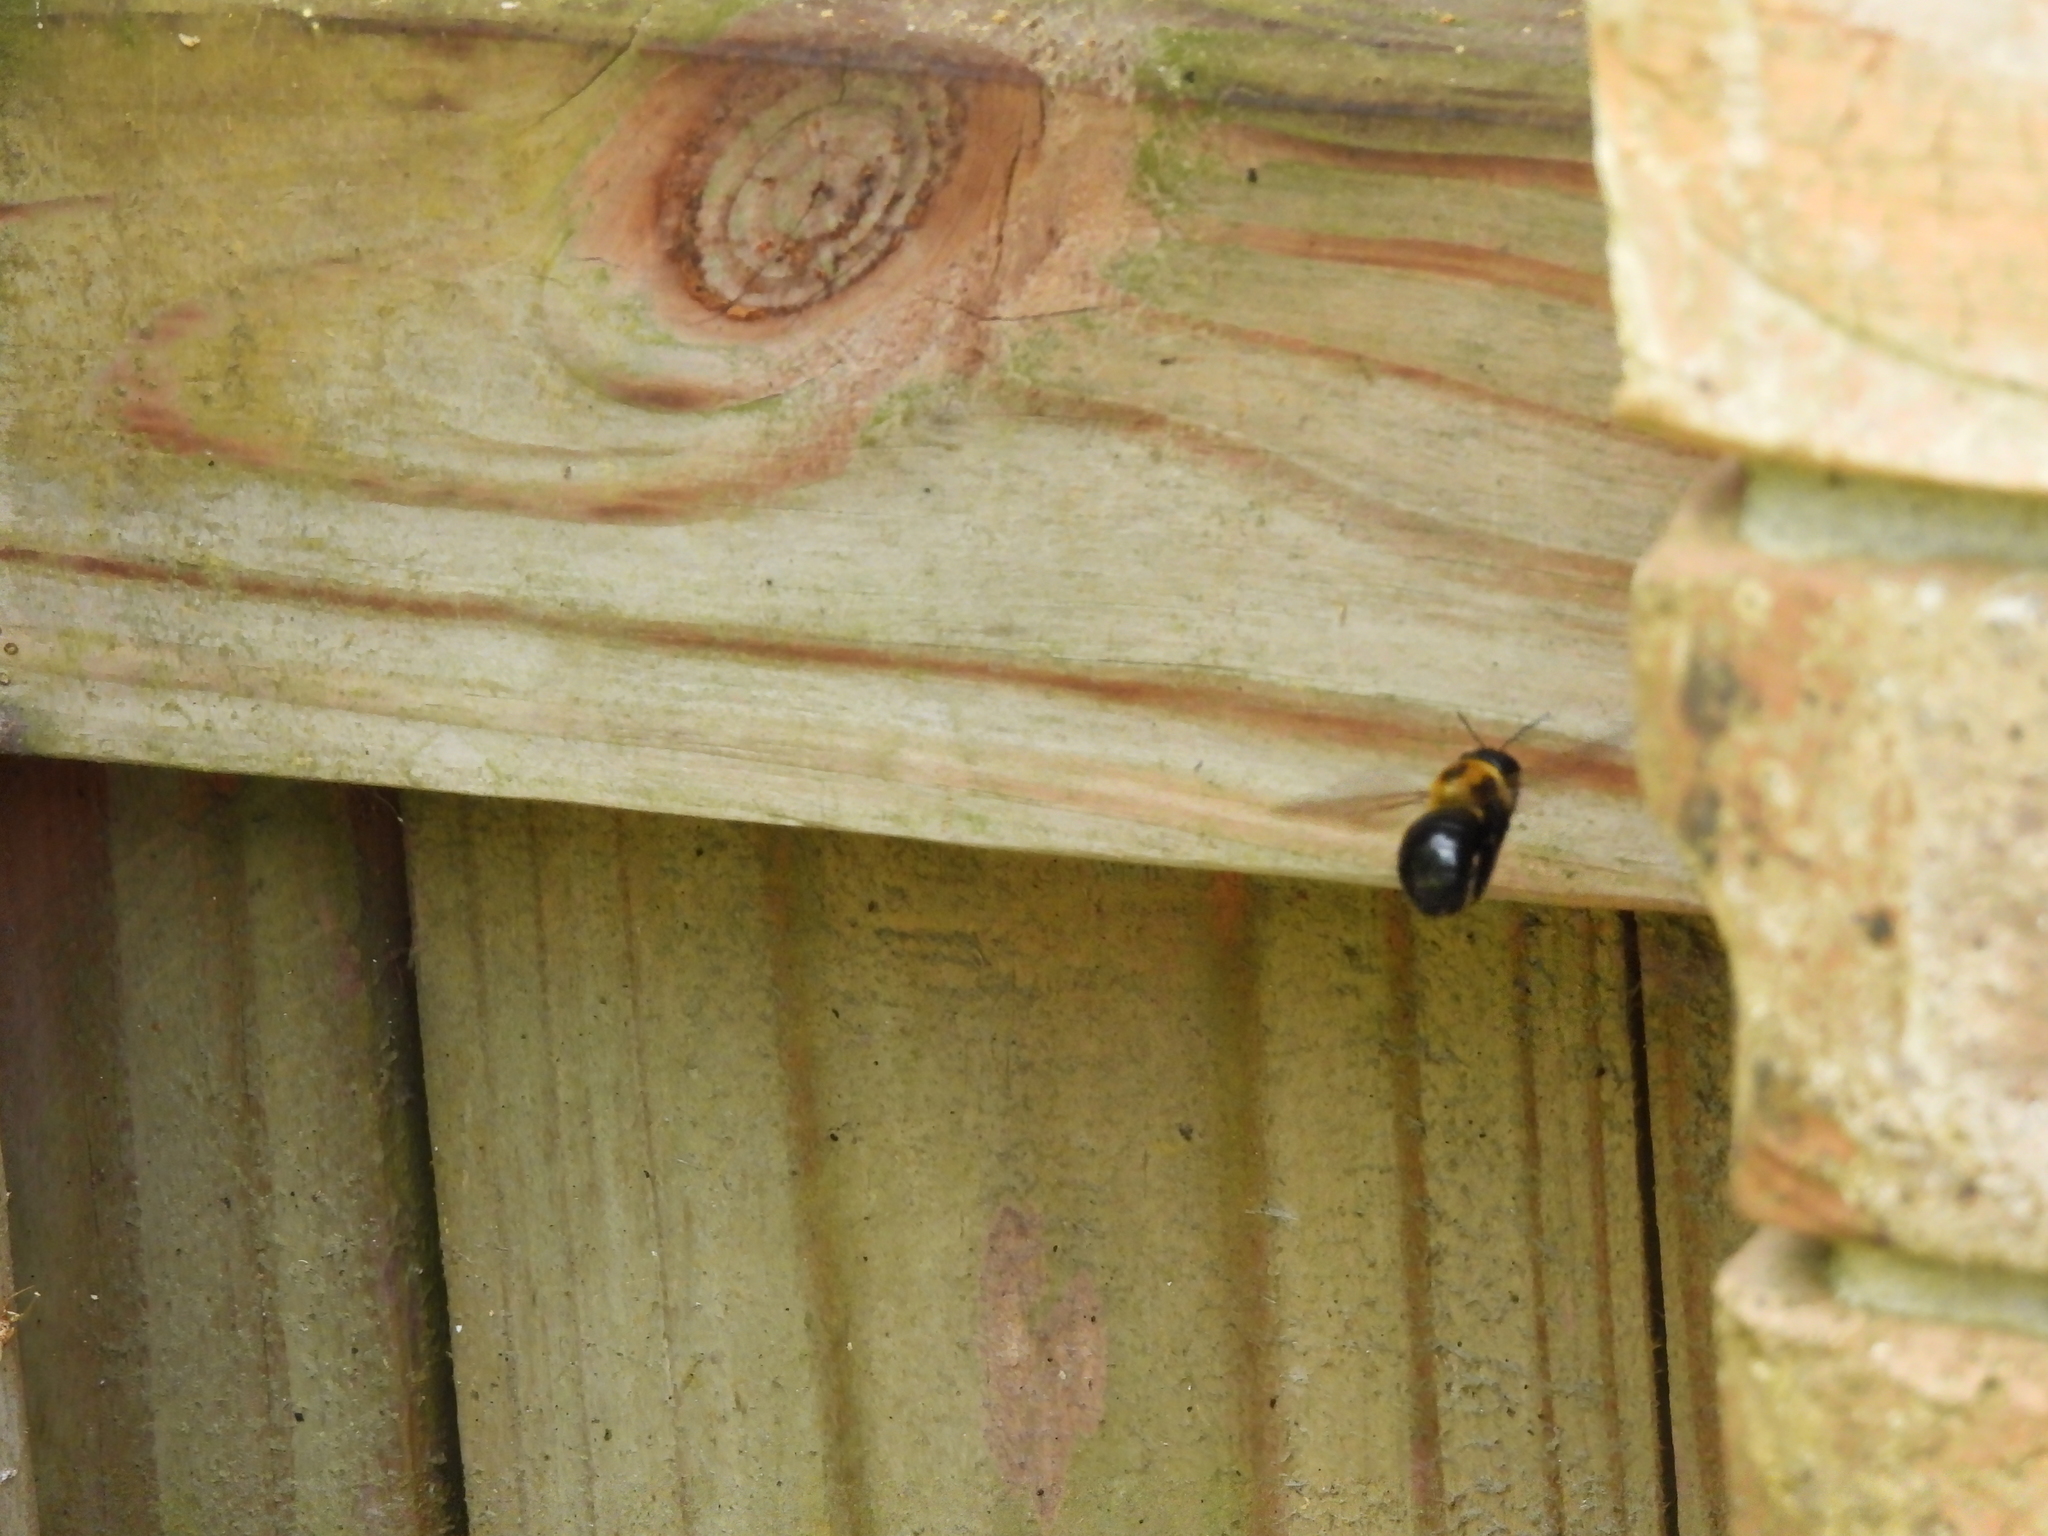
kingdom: Animalia
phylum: Arthropoda
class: Insecta
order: Hymenoptera
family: Apidae
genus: Xylocopa
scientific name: Xylocopa virginica
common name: Carpenter bee
